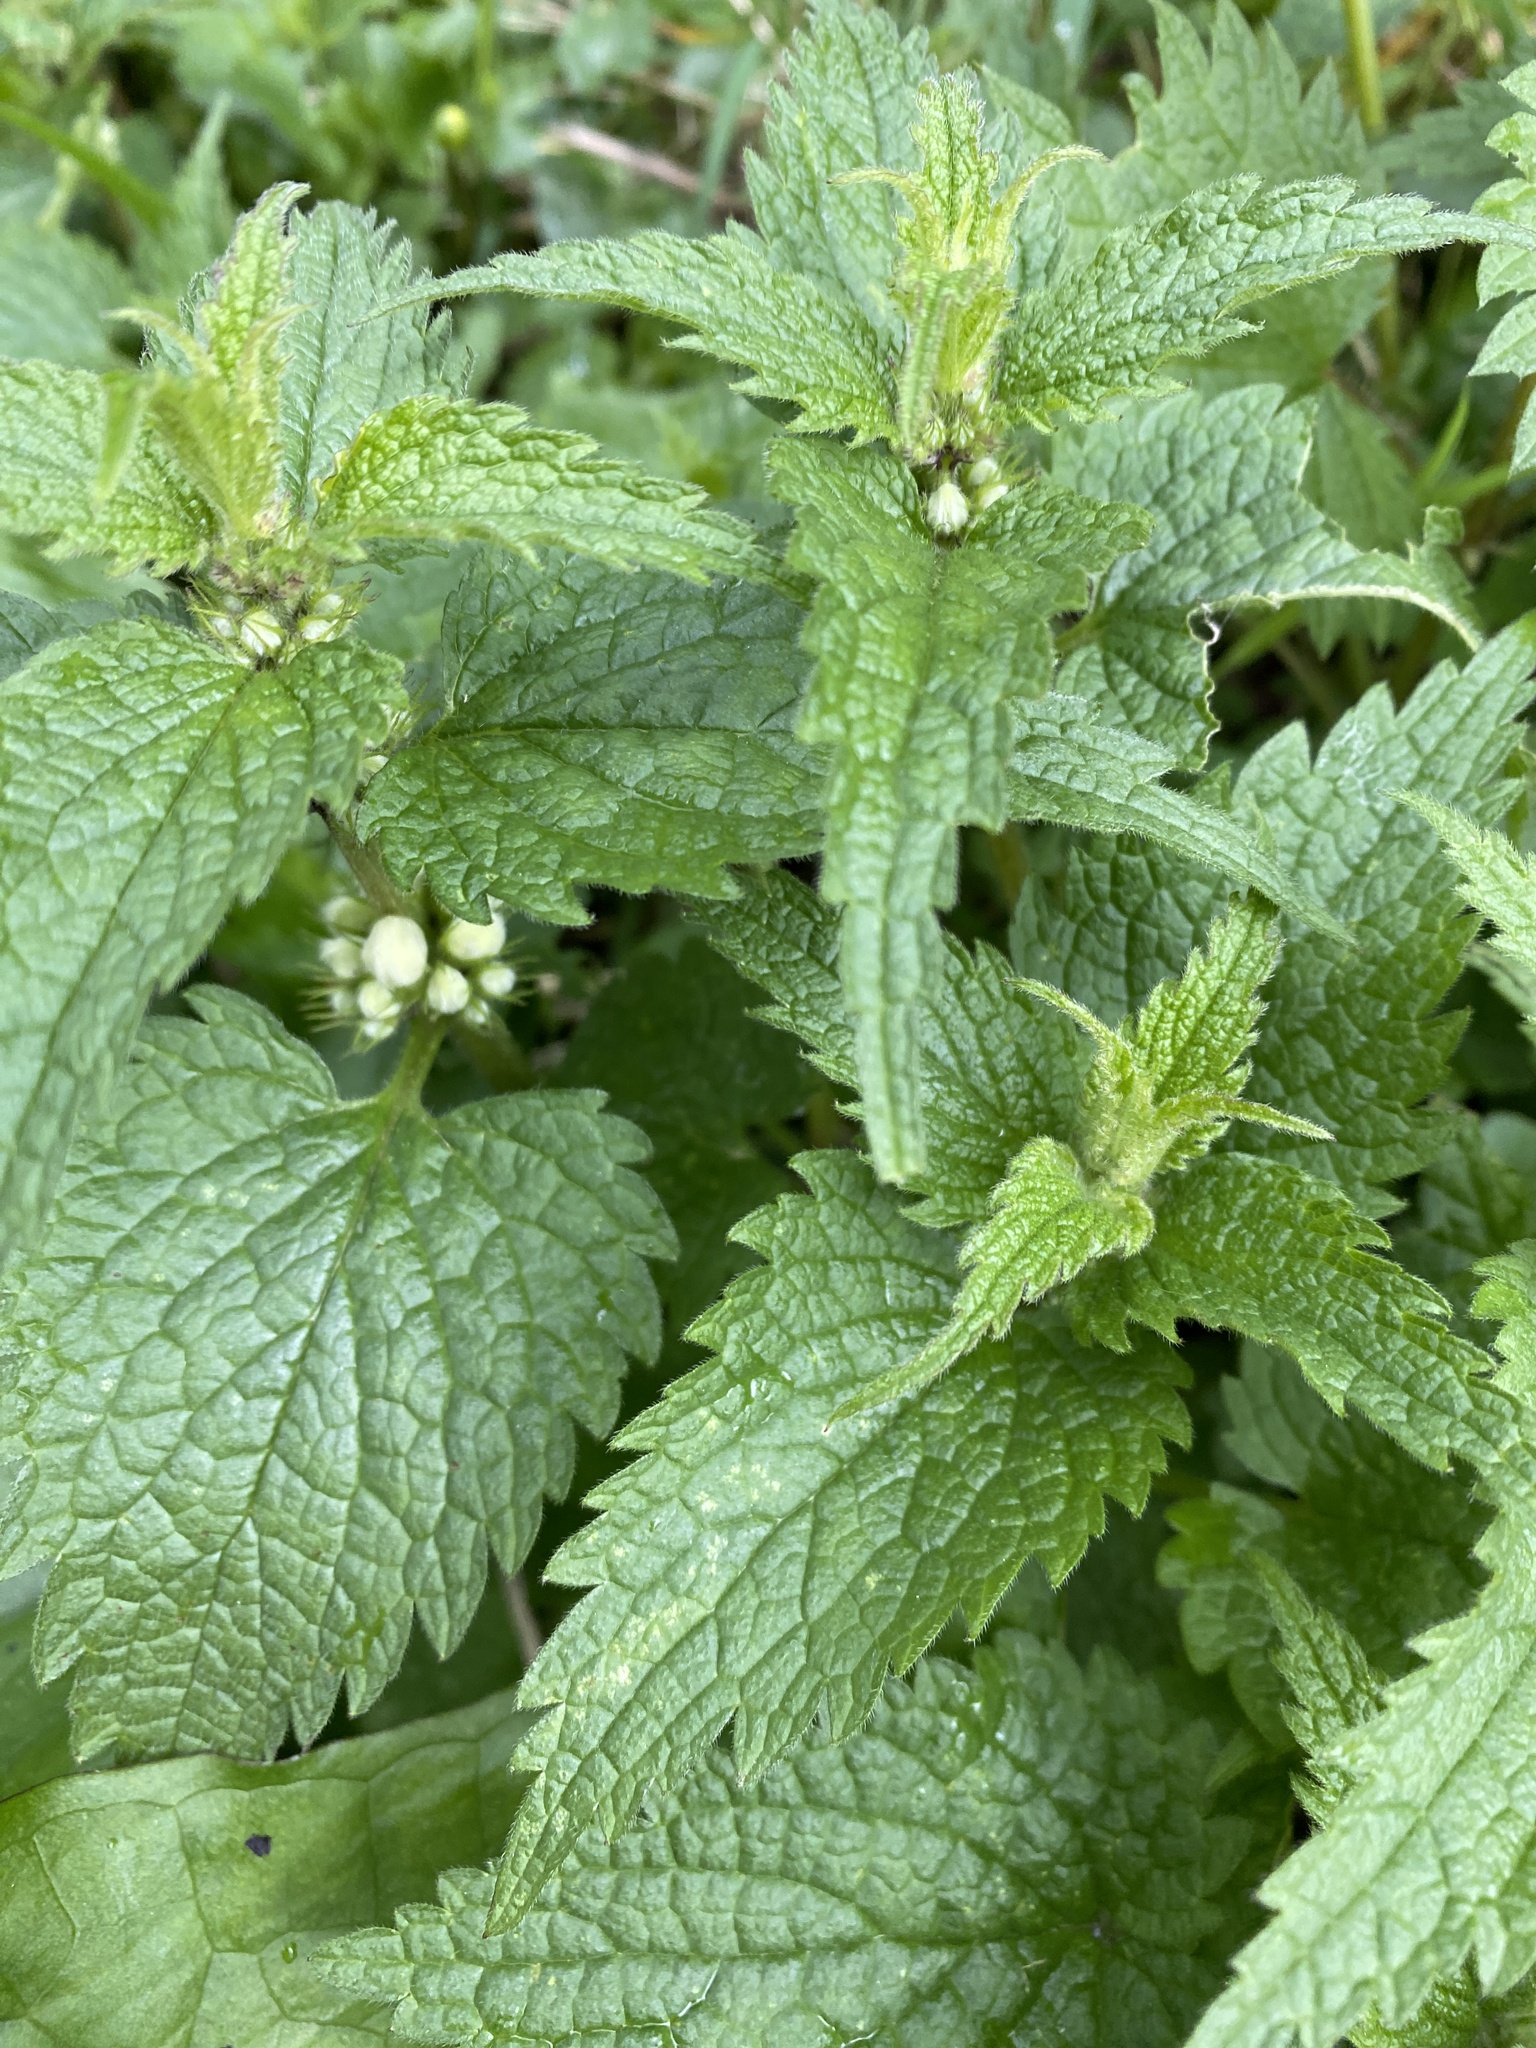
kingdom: Plantae
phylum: Tracheophyta
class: Magnoliopsida
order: Lamiales
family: Lamiaceae
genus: Lamium
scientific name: Lamium album
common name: White dead-nettle
